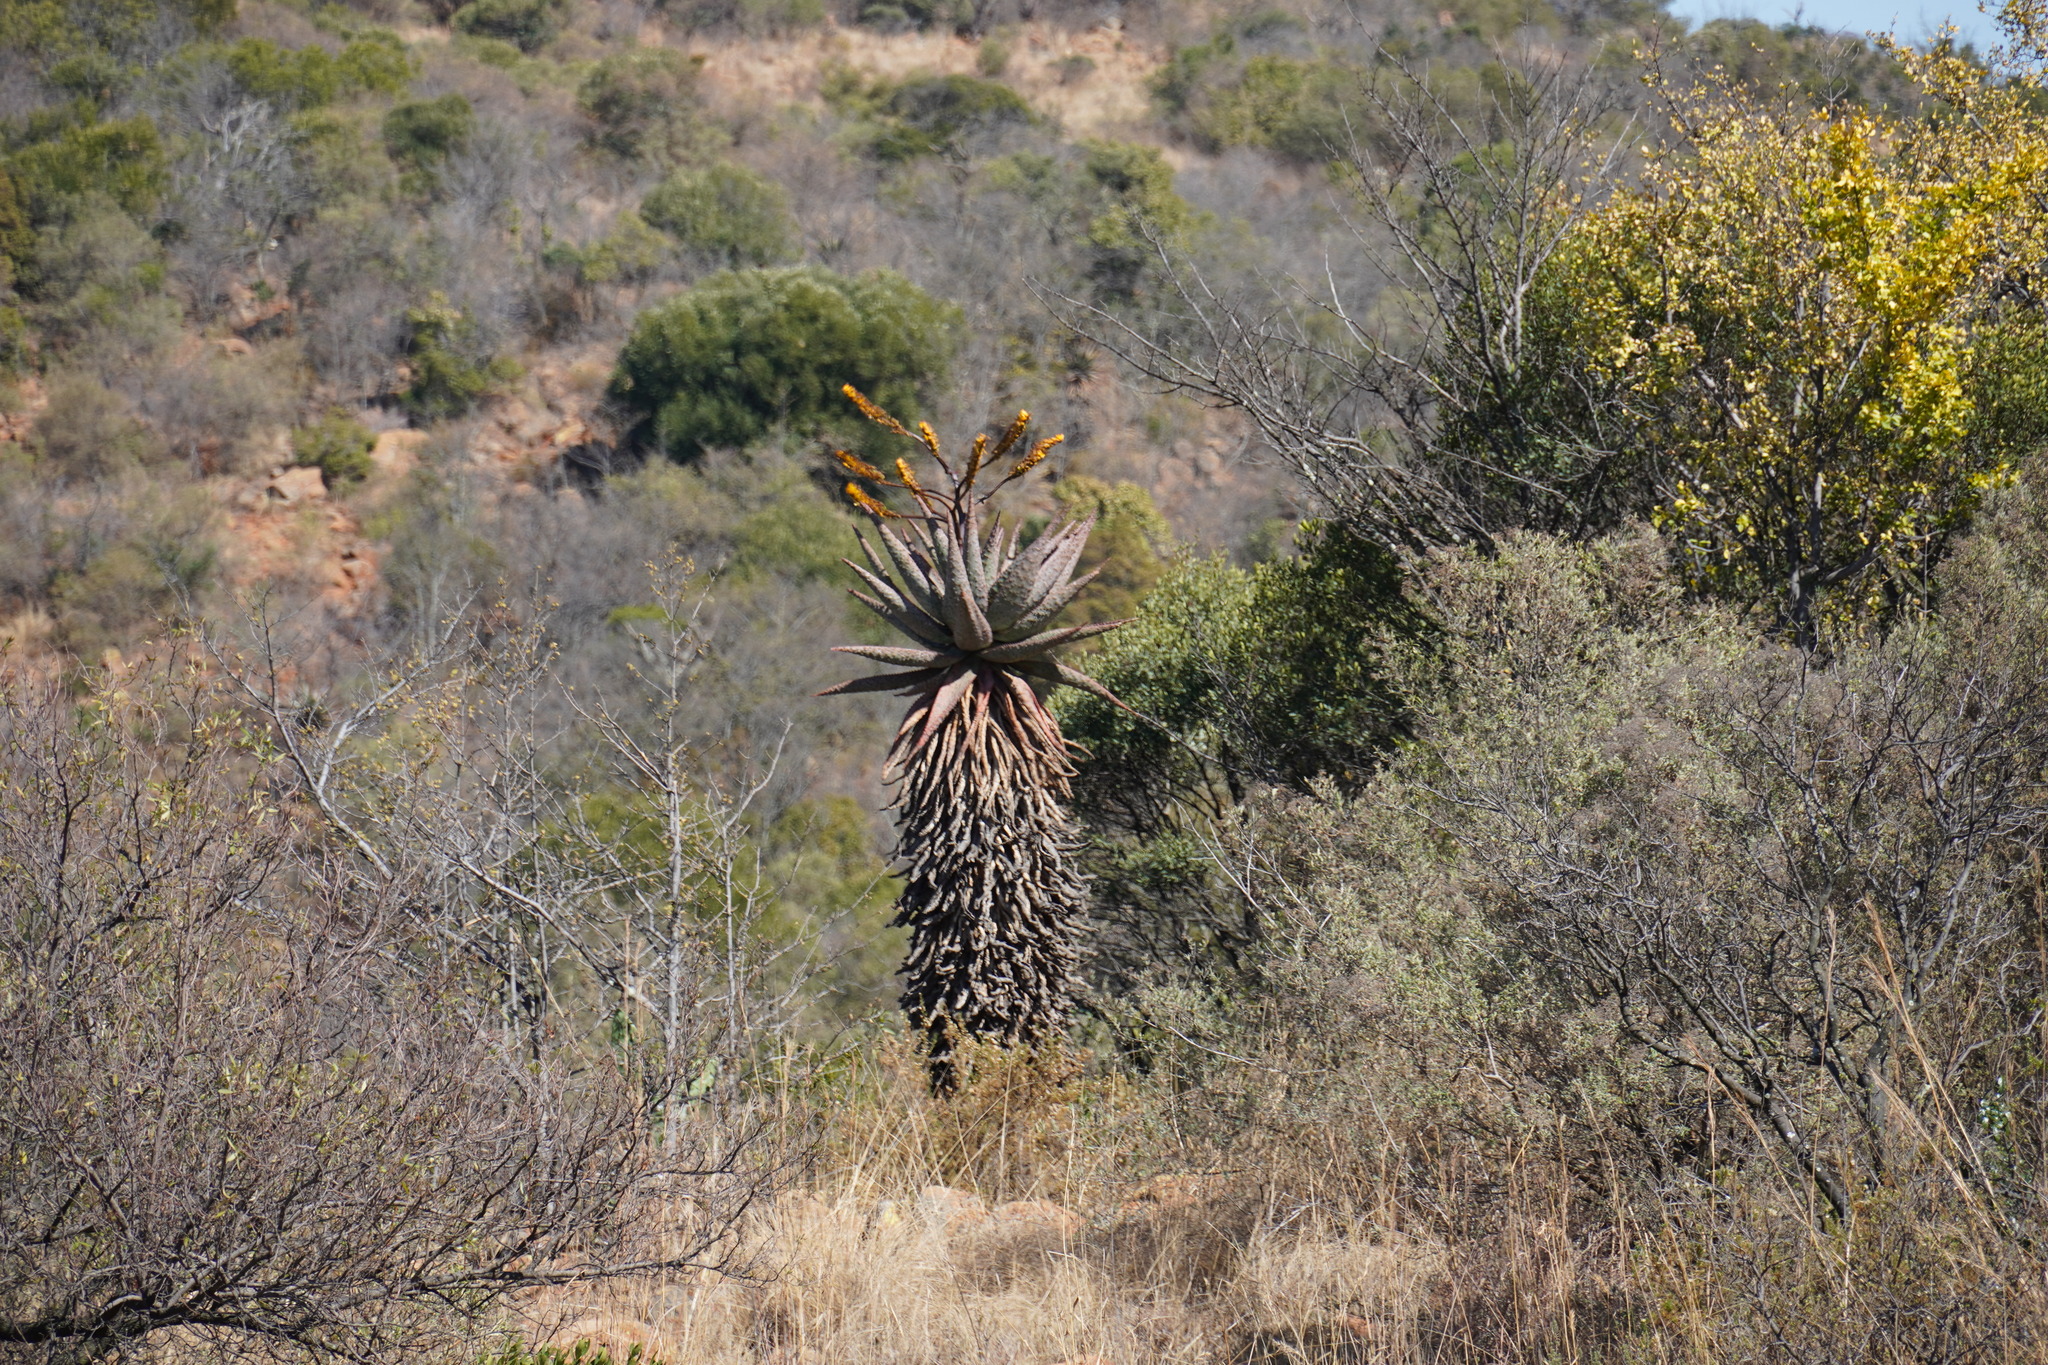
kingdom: Plantae
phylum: Tracheophyta
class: Liliopsida
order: Asparagales
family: Asphodelaceae
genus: Aloe
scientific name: Aloe marlothii
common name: Flat-flowered aloe
